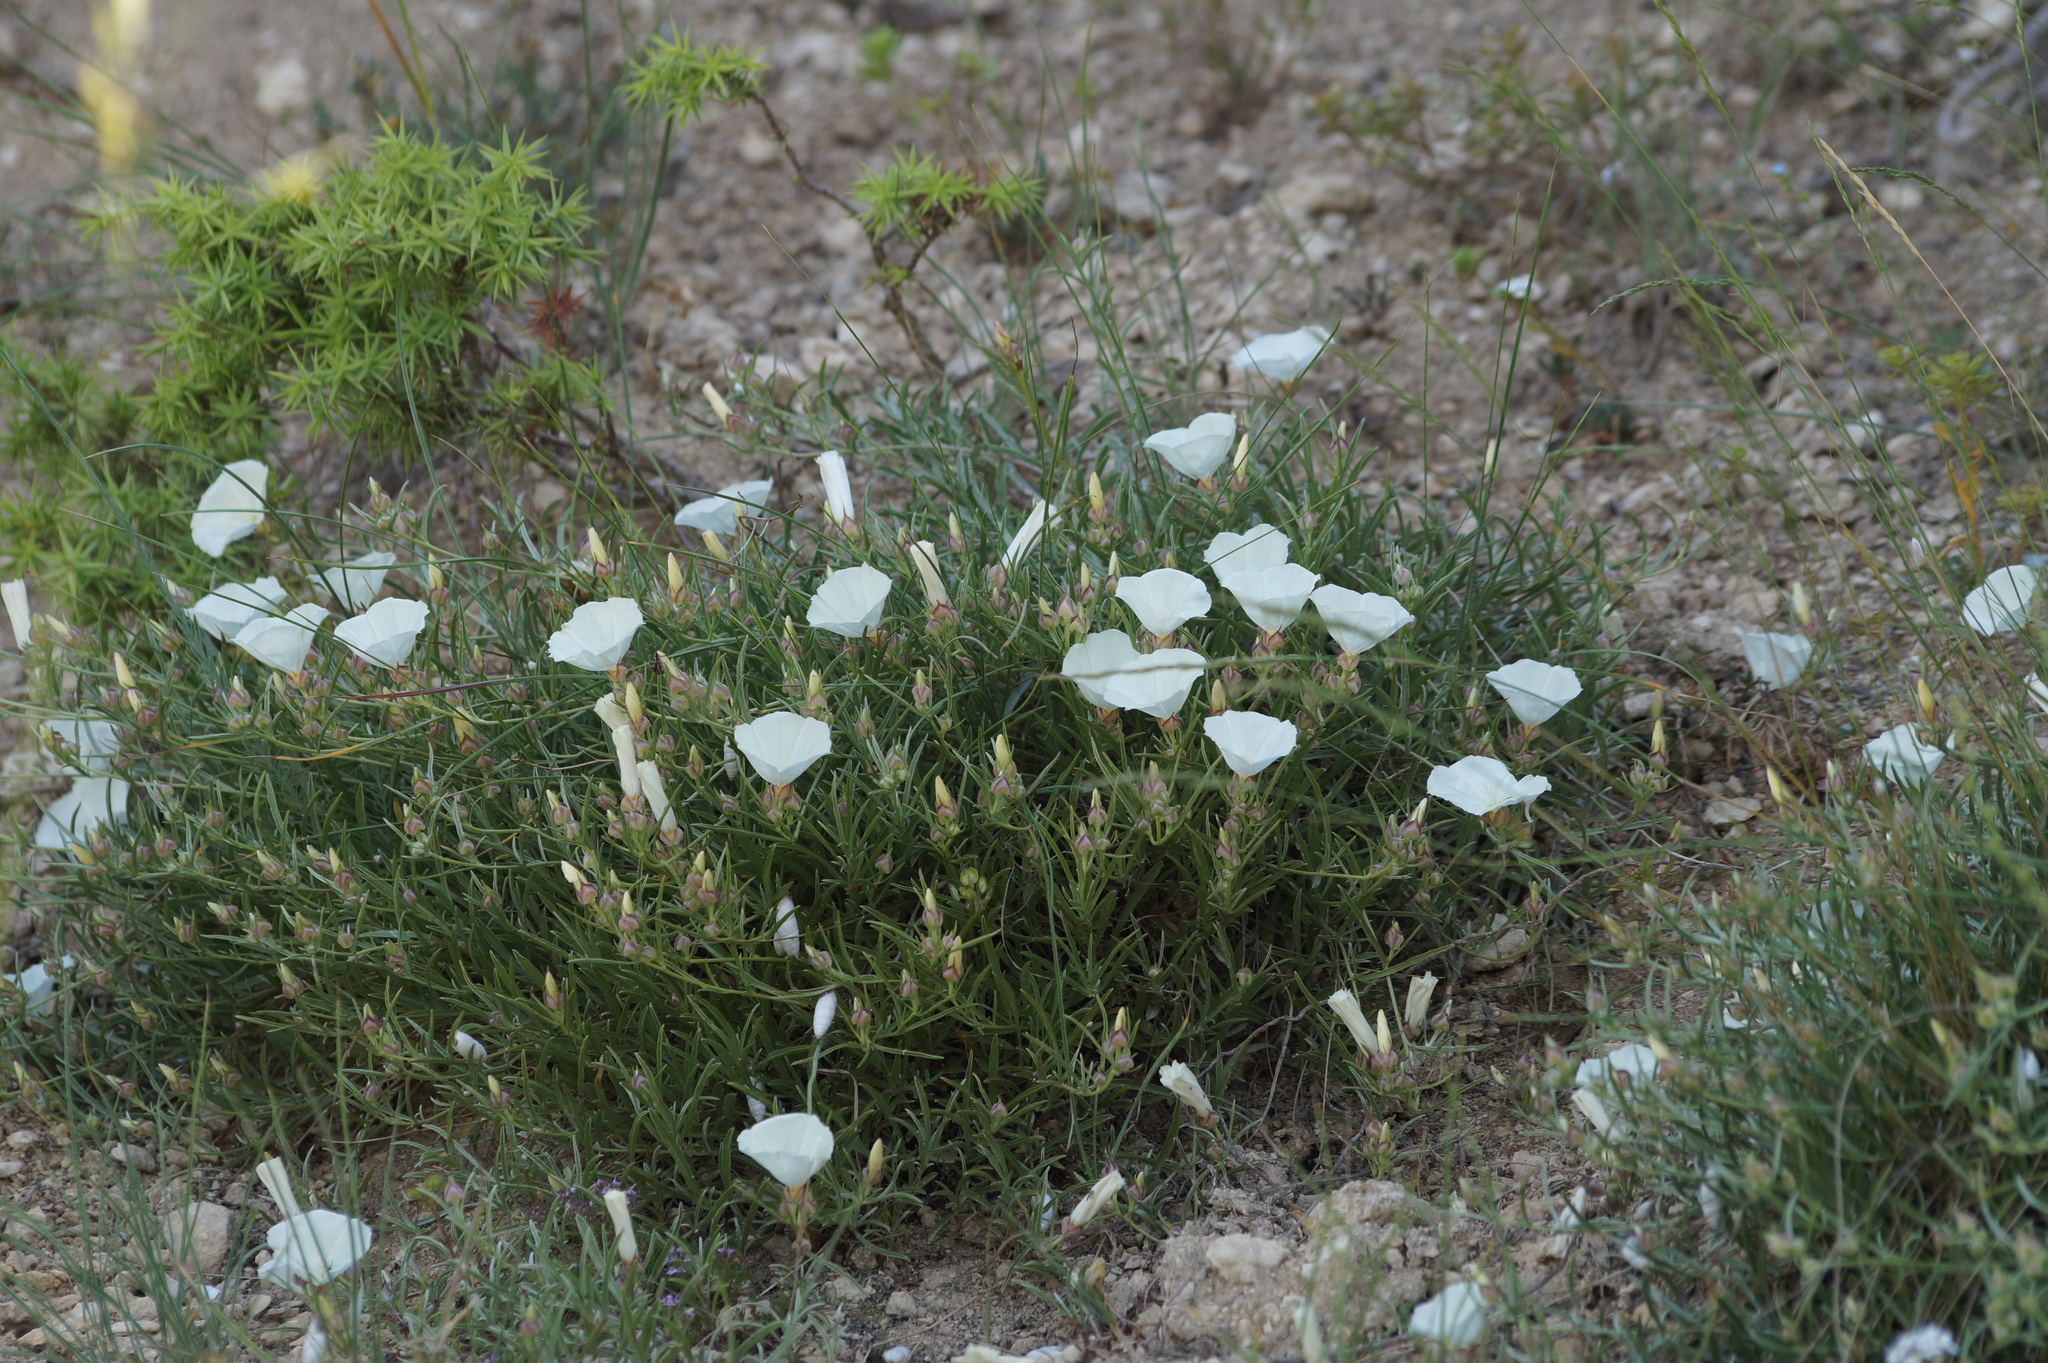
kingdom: Plantae
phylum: Tracheophyta
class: Magnoliopsida
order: Solanales
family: Convolvulaceae
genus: Convolvulus
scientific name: Convolvulus holosericeus
